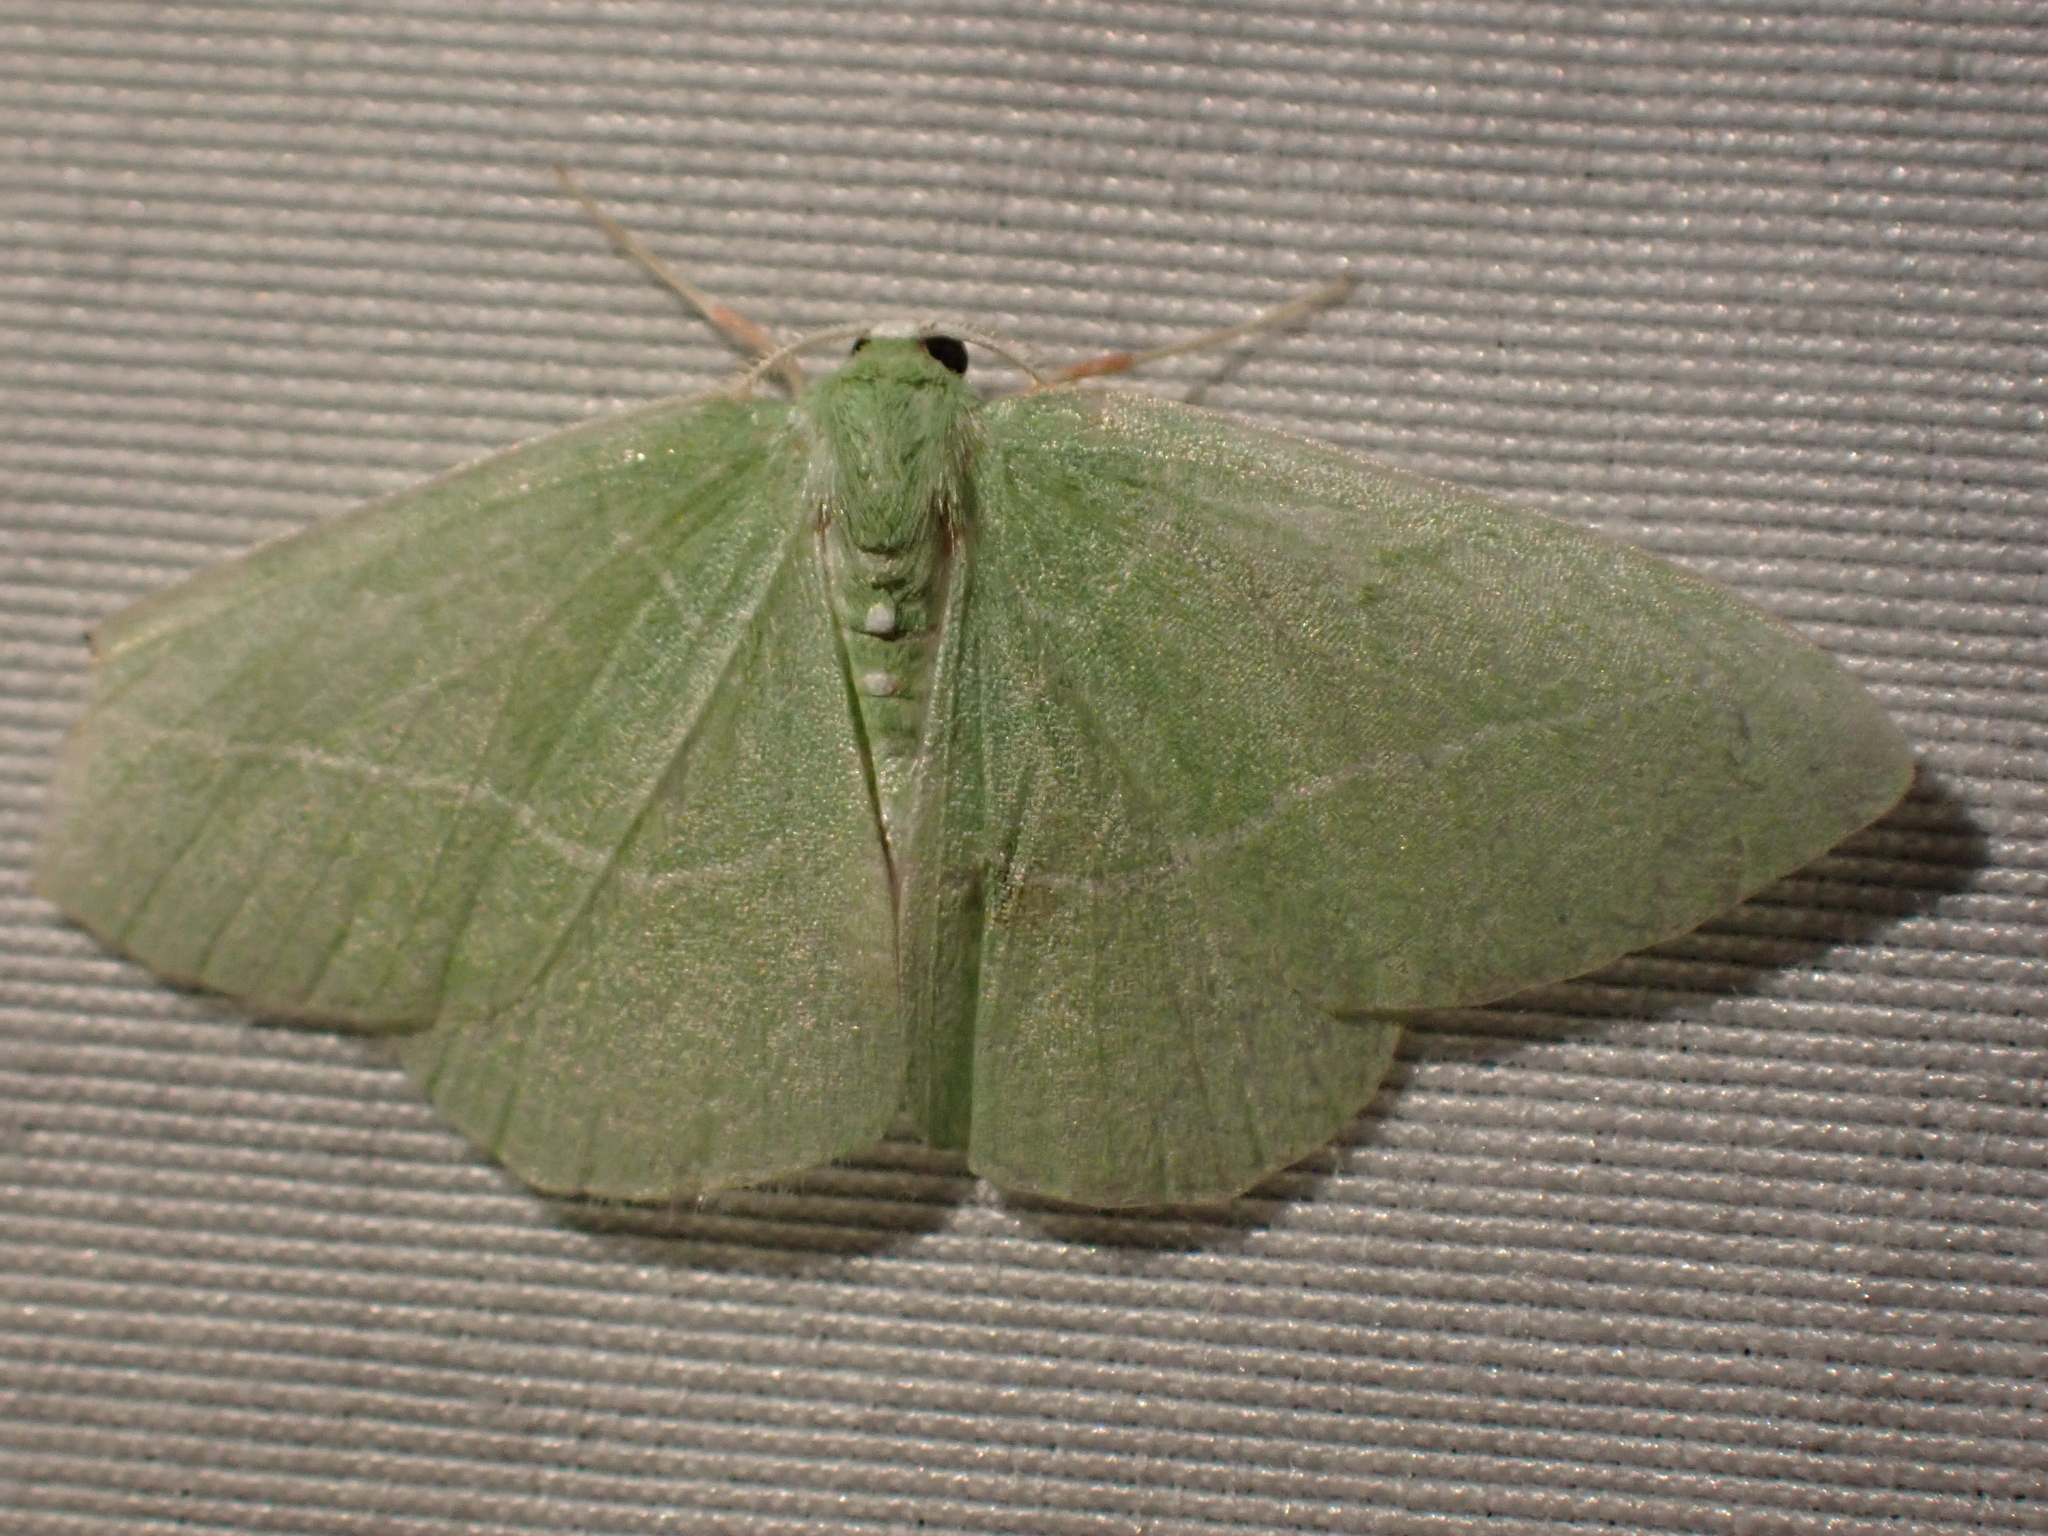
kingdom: Animalia
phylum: Arthropoda
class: Insecta
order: Lepidoptera
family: Geometridae
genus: Nemoria
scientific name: Nemoria unitaria
